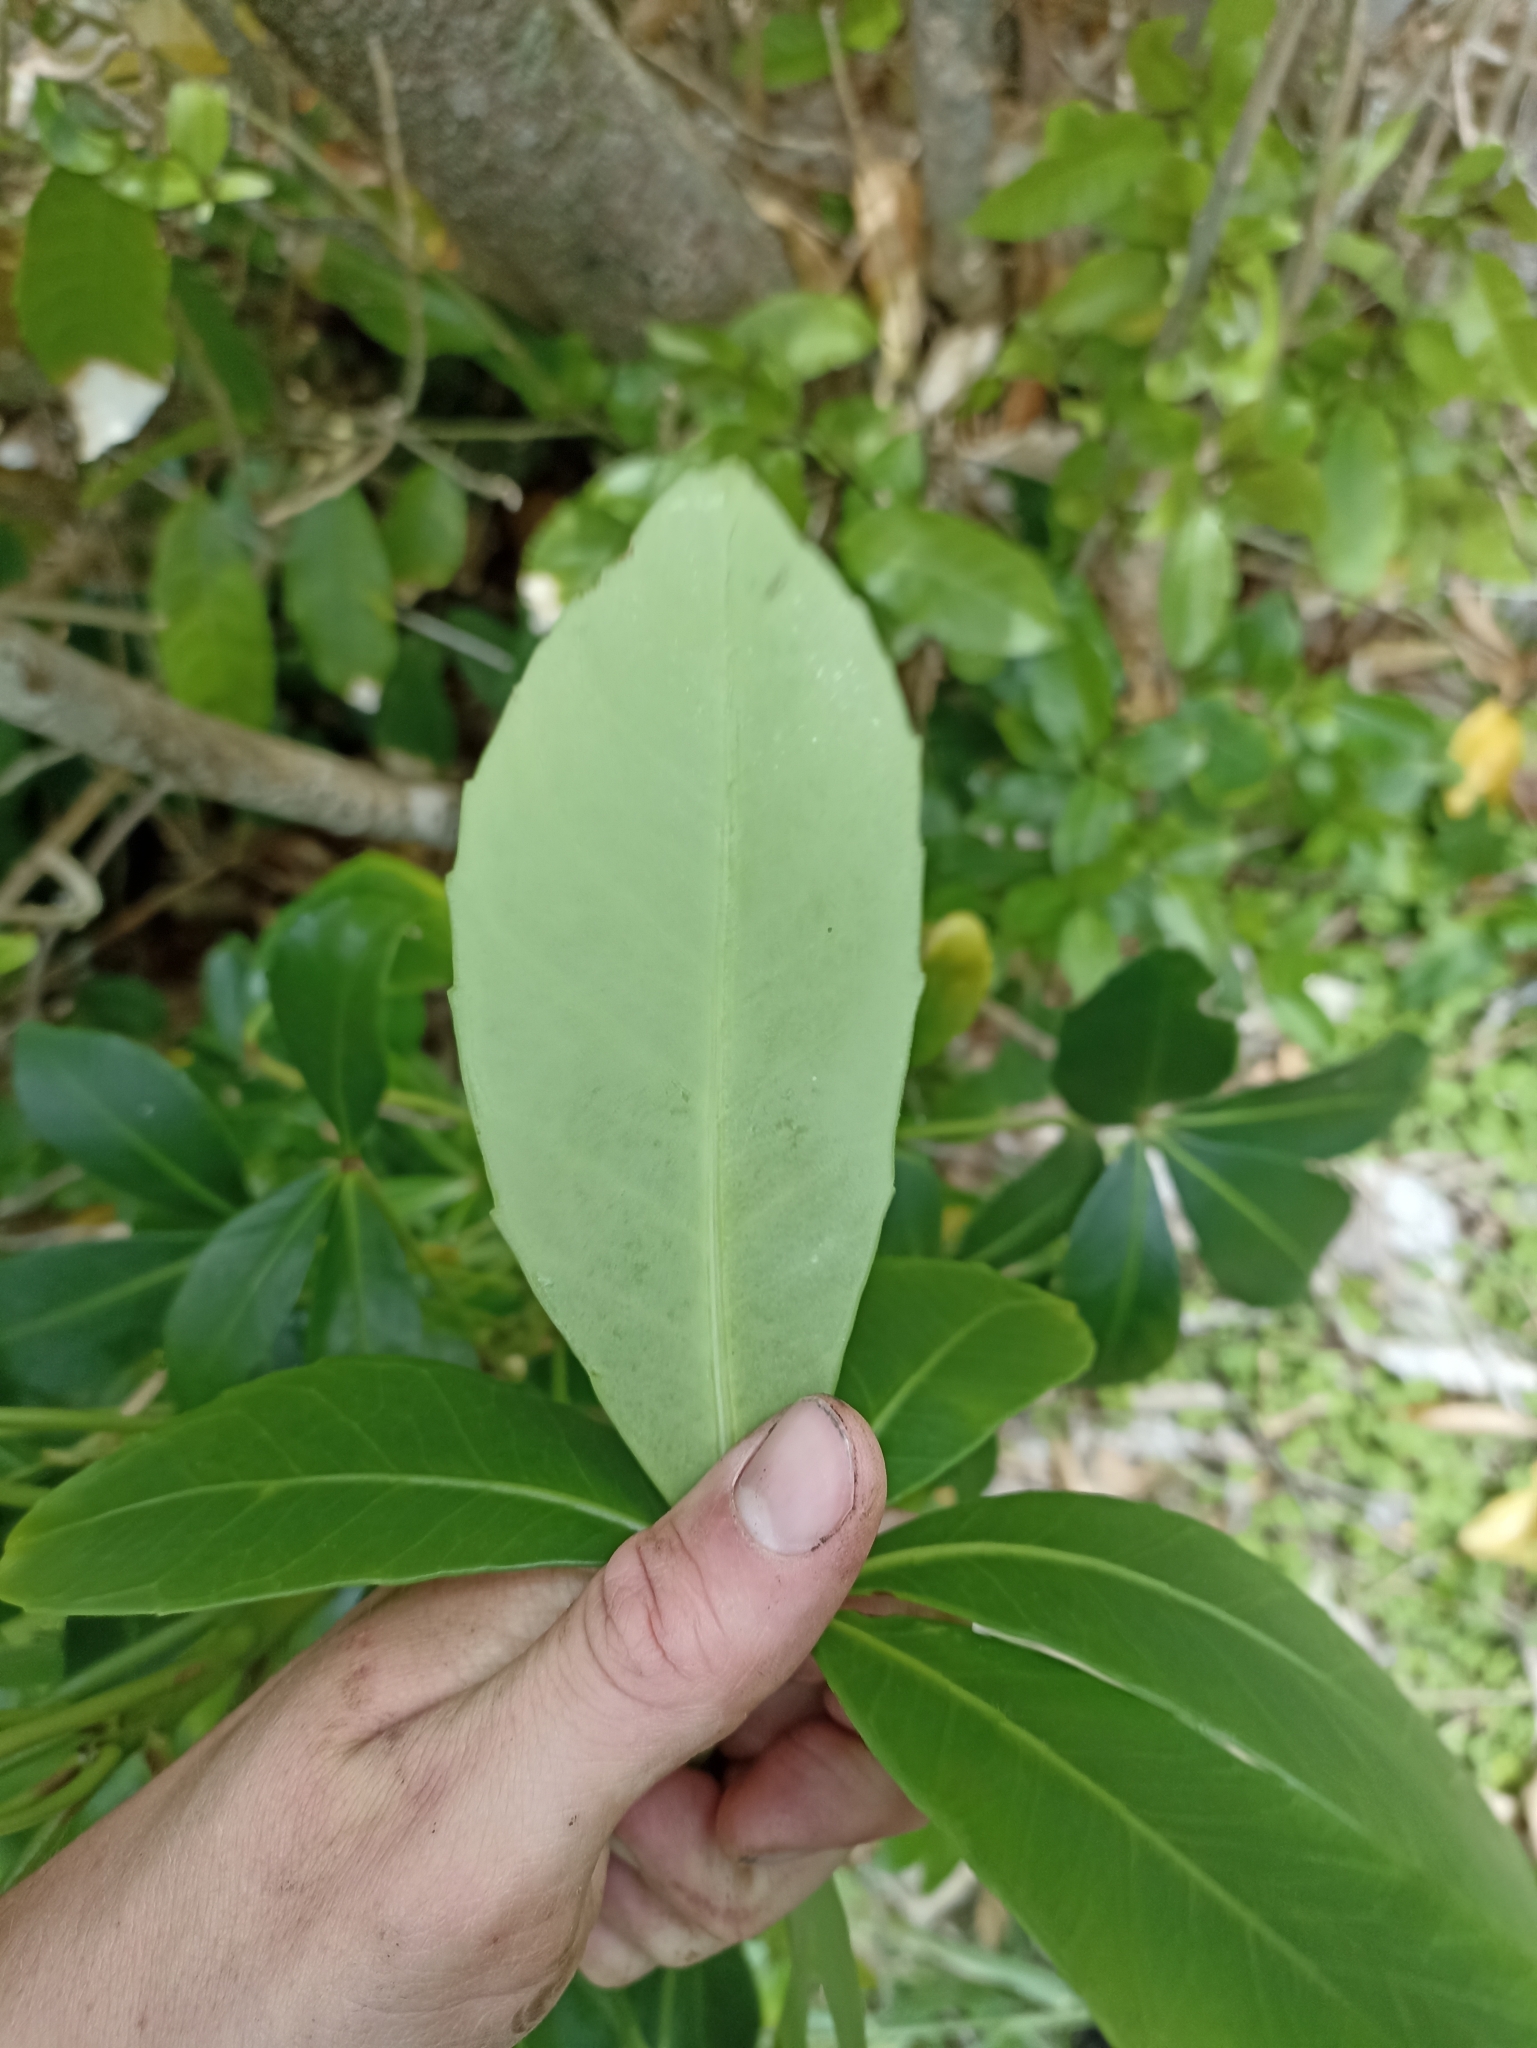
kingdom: Plantae
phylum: Tracheophyta
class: Magnoliopsida
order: Apiales
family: Araliaceae
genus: Pseudopanax
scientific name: Pseudopanax lessonii
